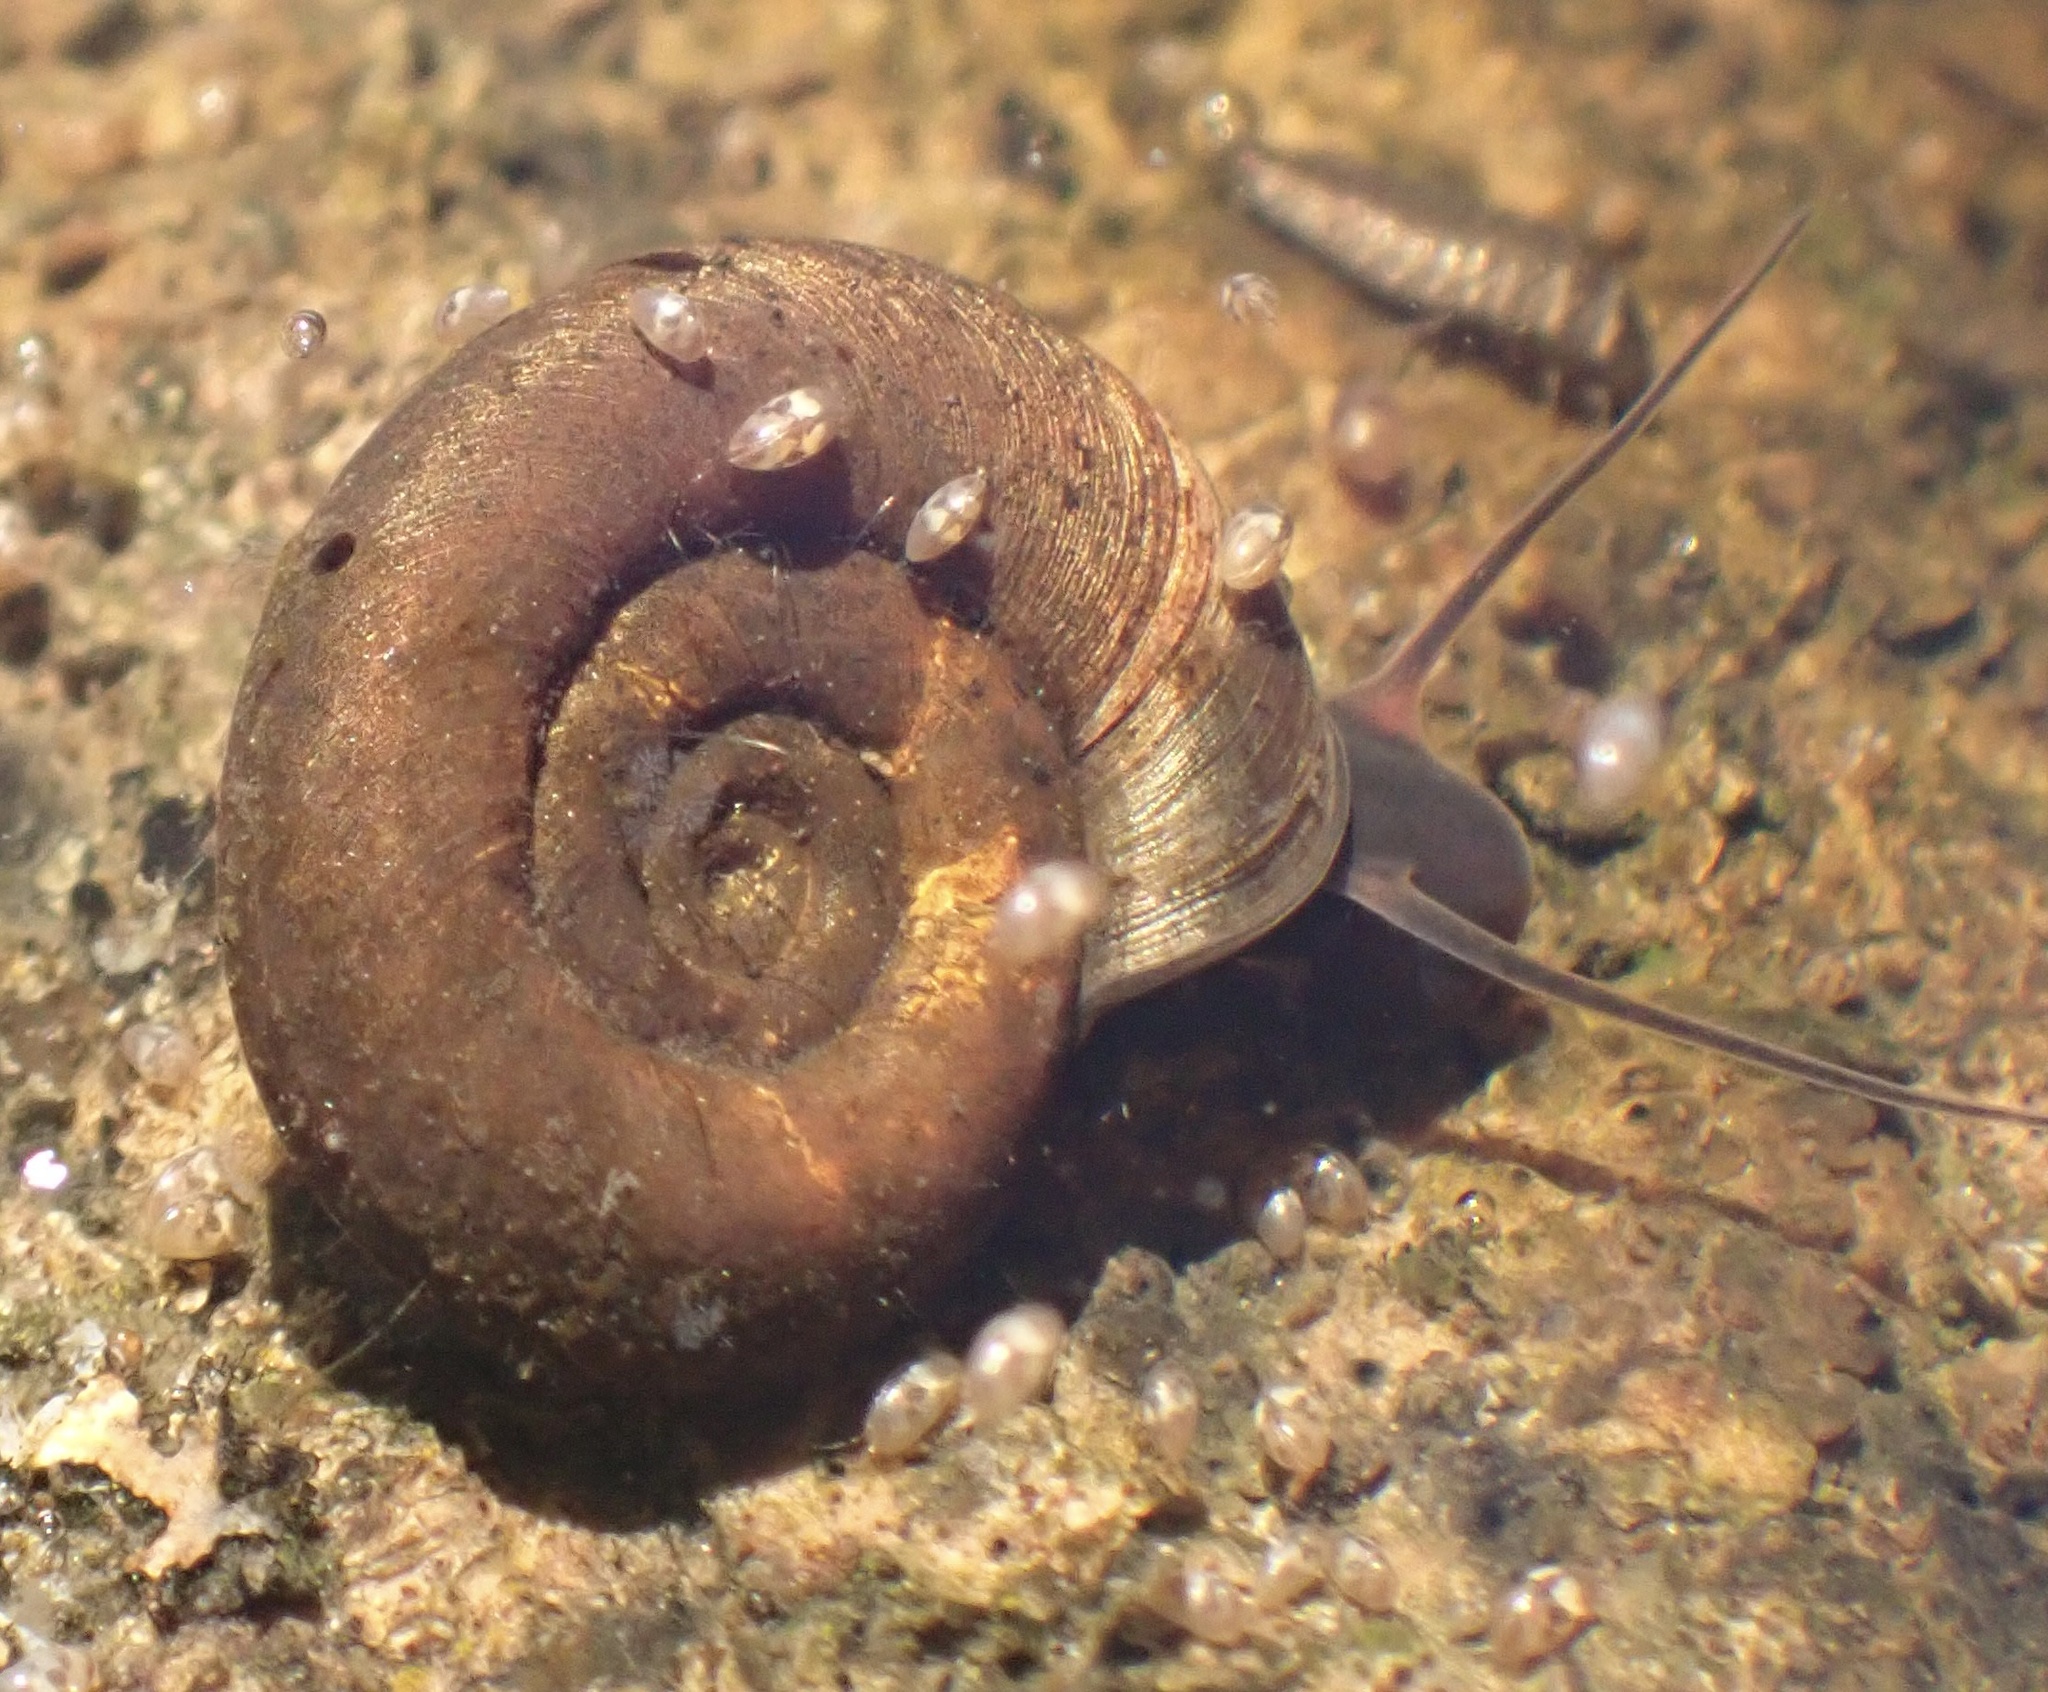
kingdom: Animalia
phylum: Mollusca
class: Gastropoda
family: Planorbidae
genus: Planorbis
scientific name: Planorbis planorbis
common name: Margined ramshorn
